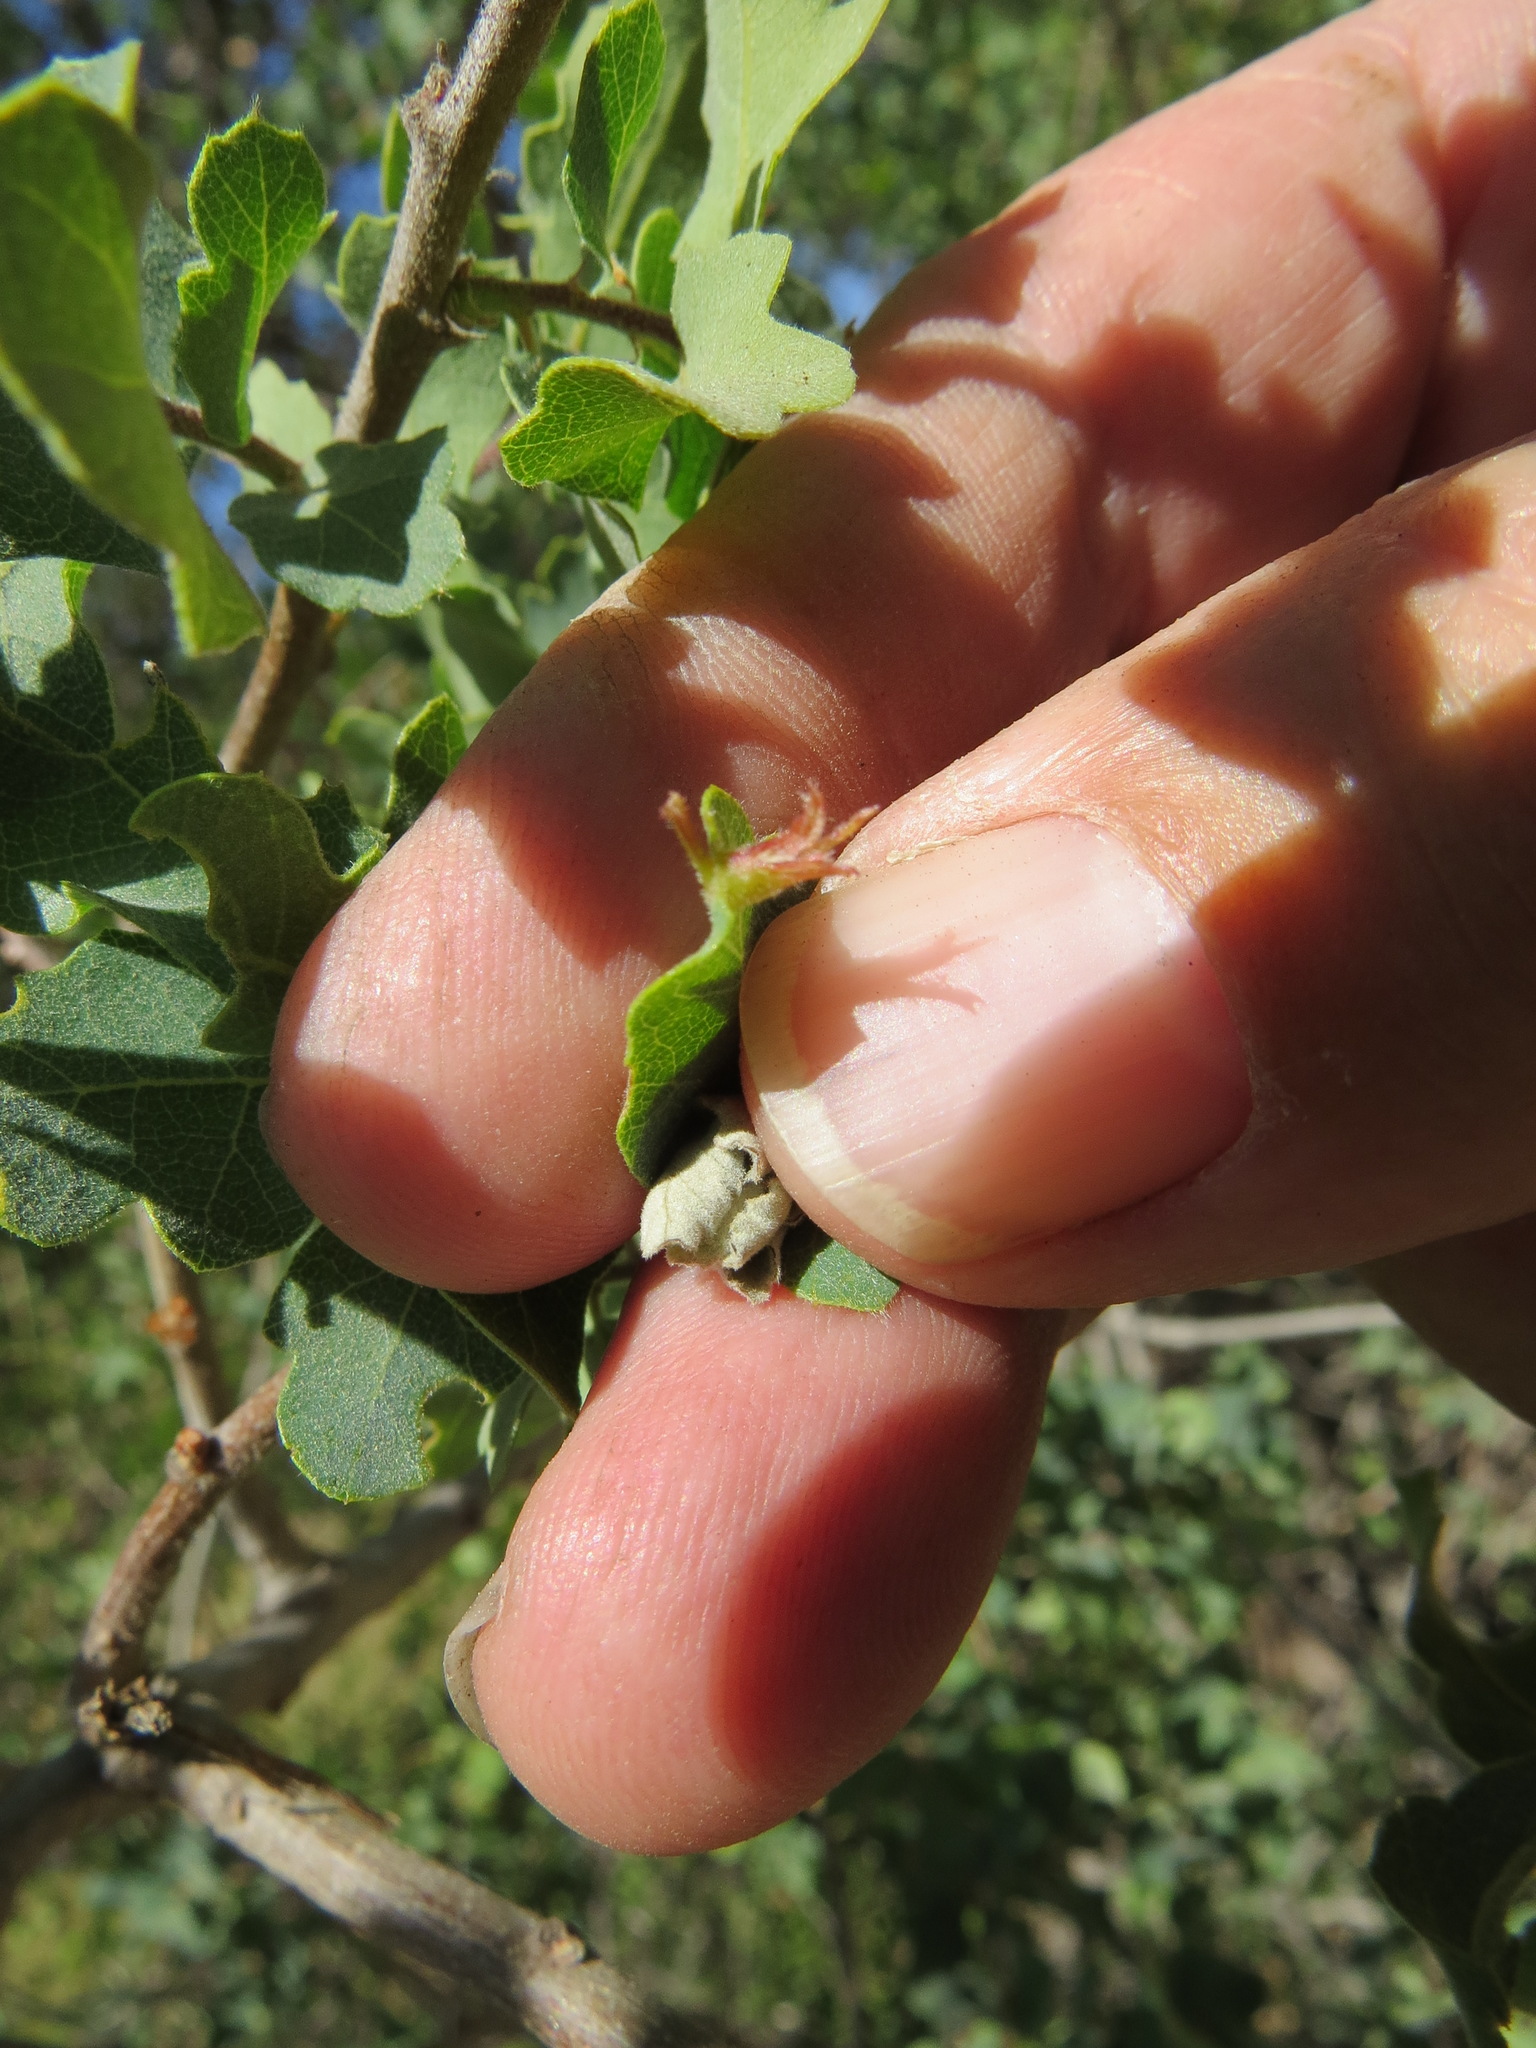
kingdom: Animalia
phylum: Arthropoda
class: Insecta
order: Hymenoptera
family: Cynipidae
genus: Andricus
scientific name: Andricus
